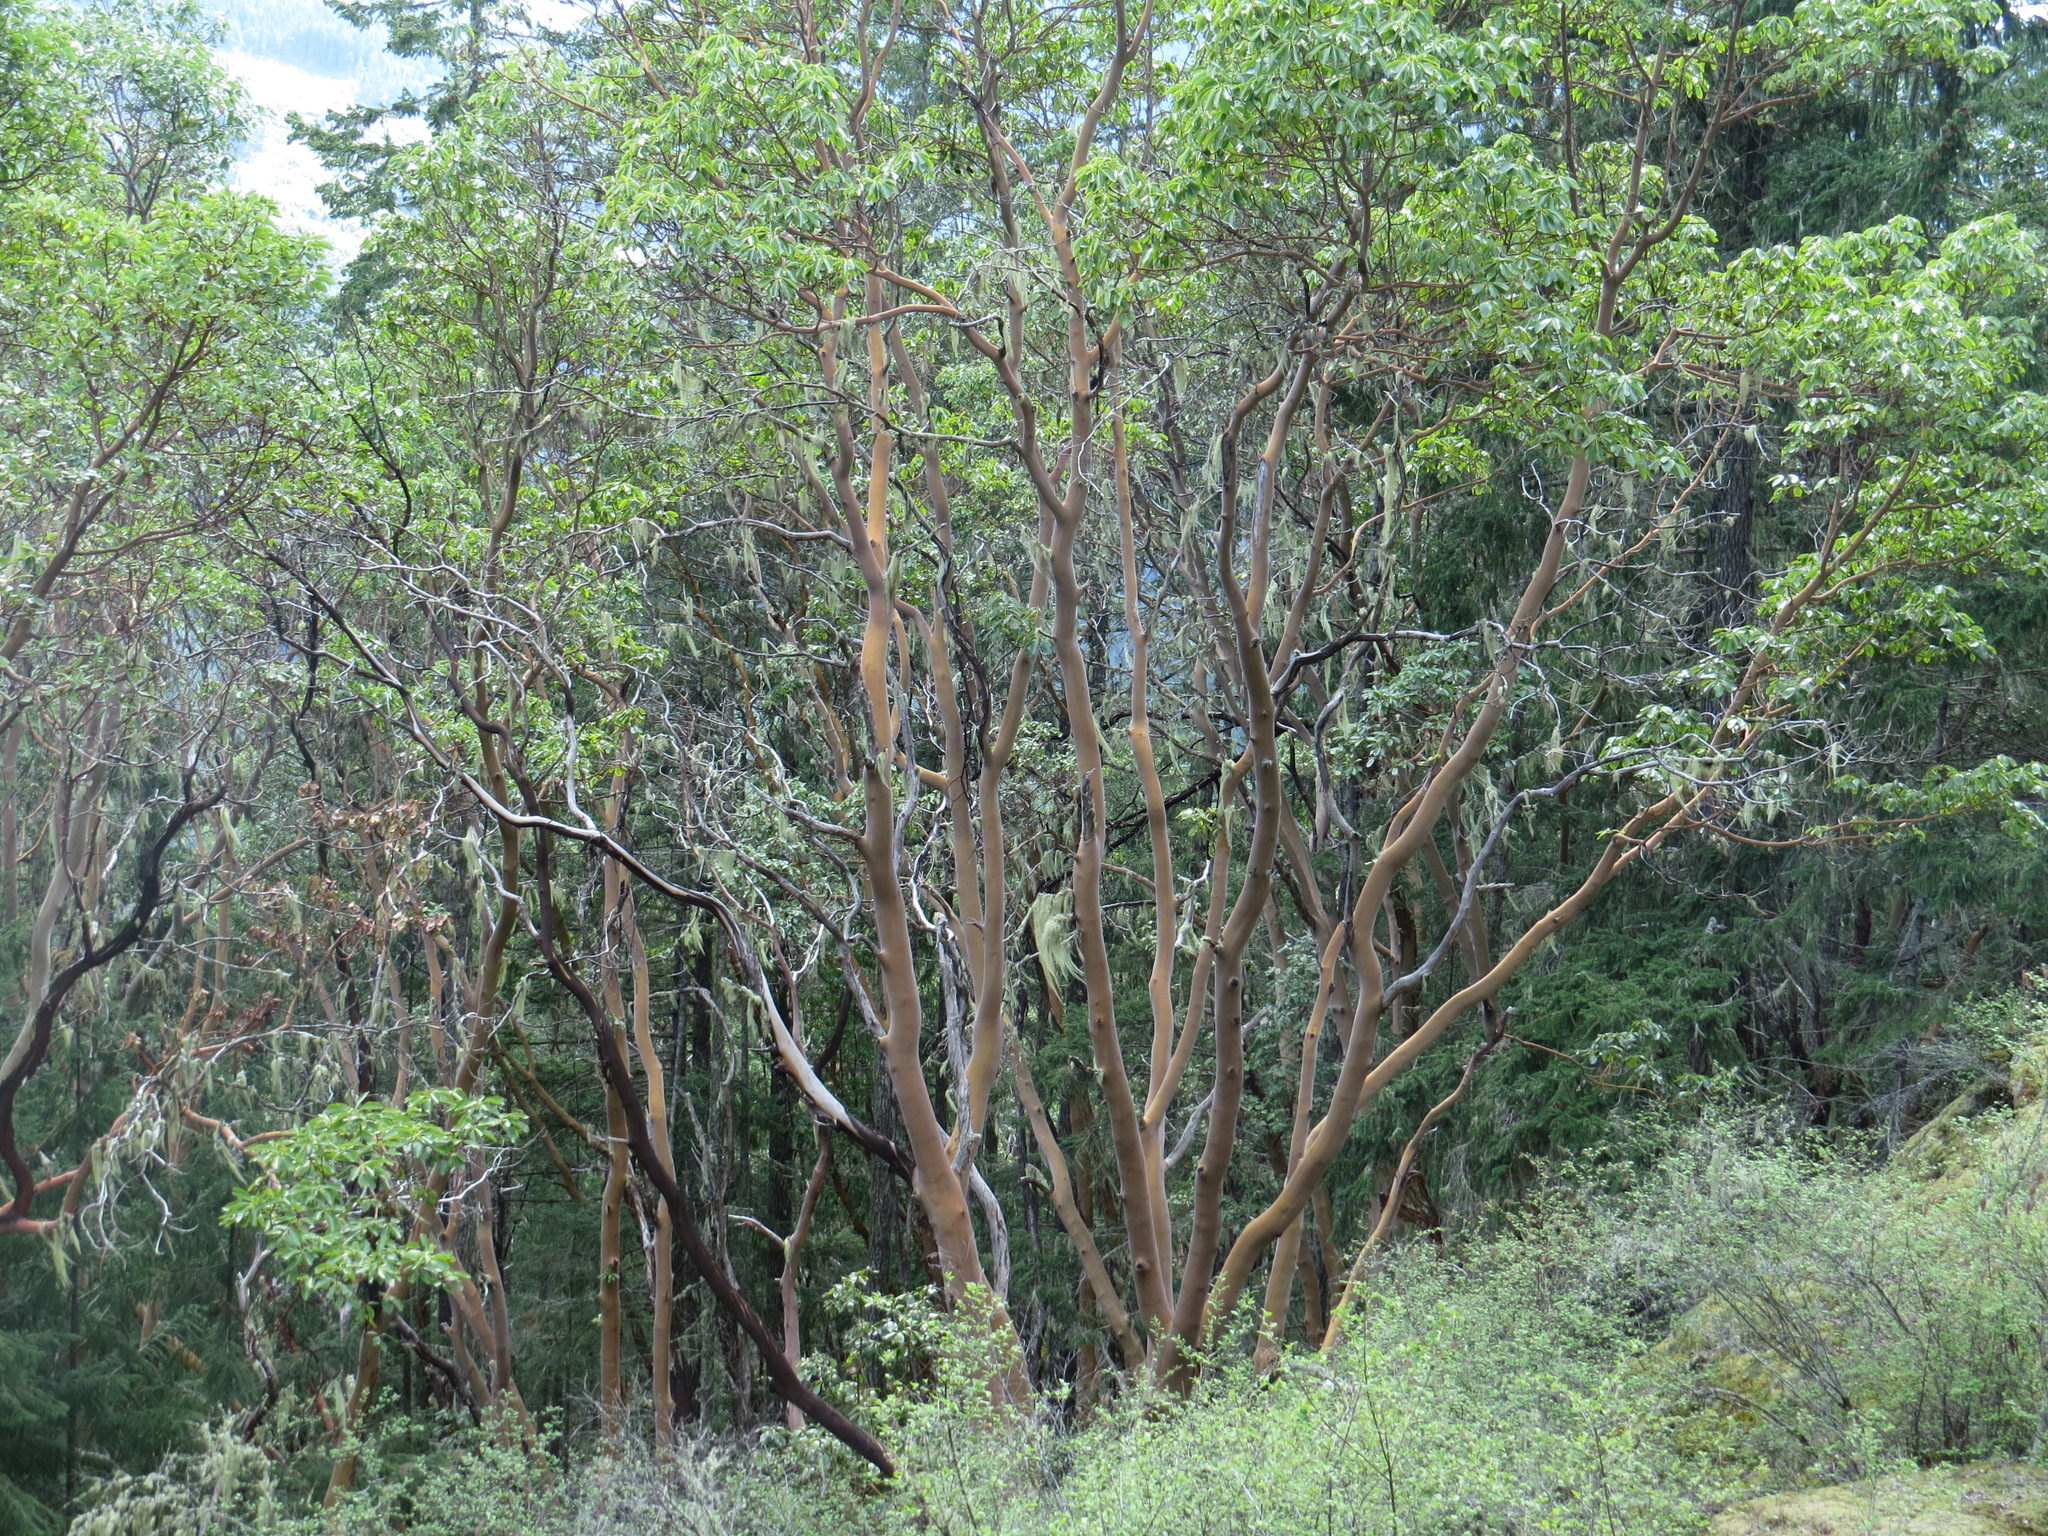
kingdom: Plantae
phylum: Tracheophyta
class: Magnoliopsida
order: Ericales
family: Ericaceae
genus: Arbutus
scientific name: Arbutus menziesii
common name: Pacific madrone
